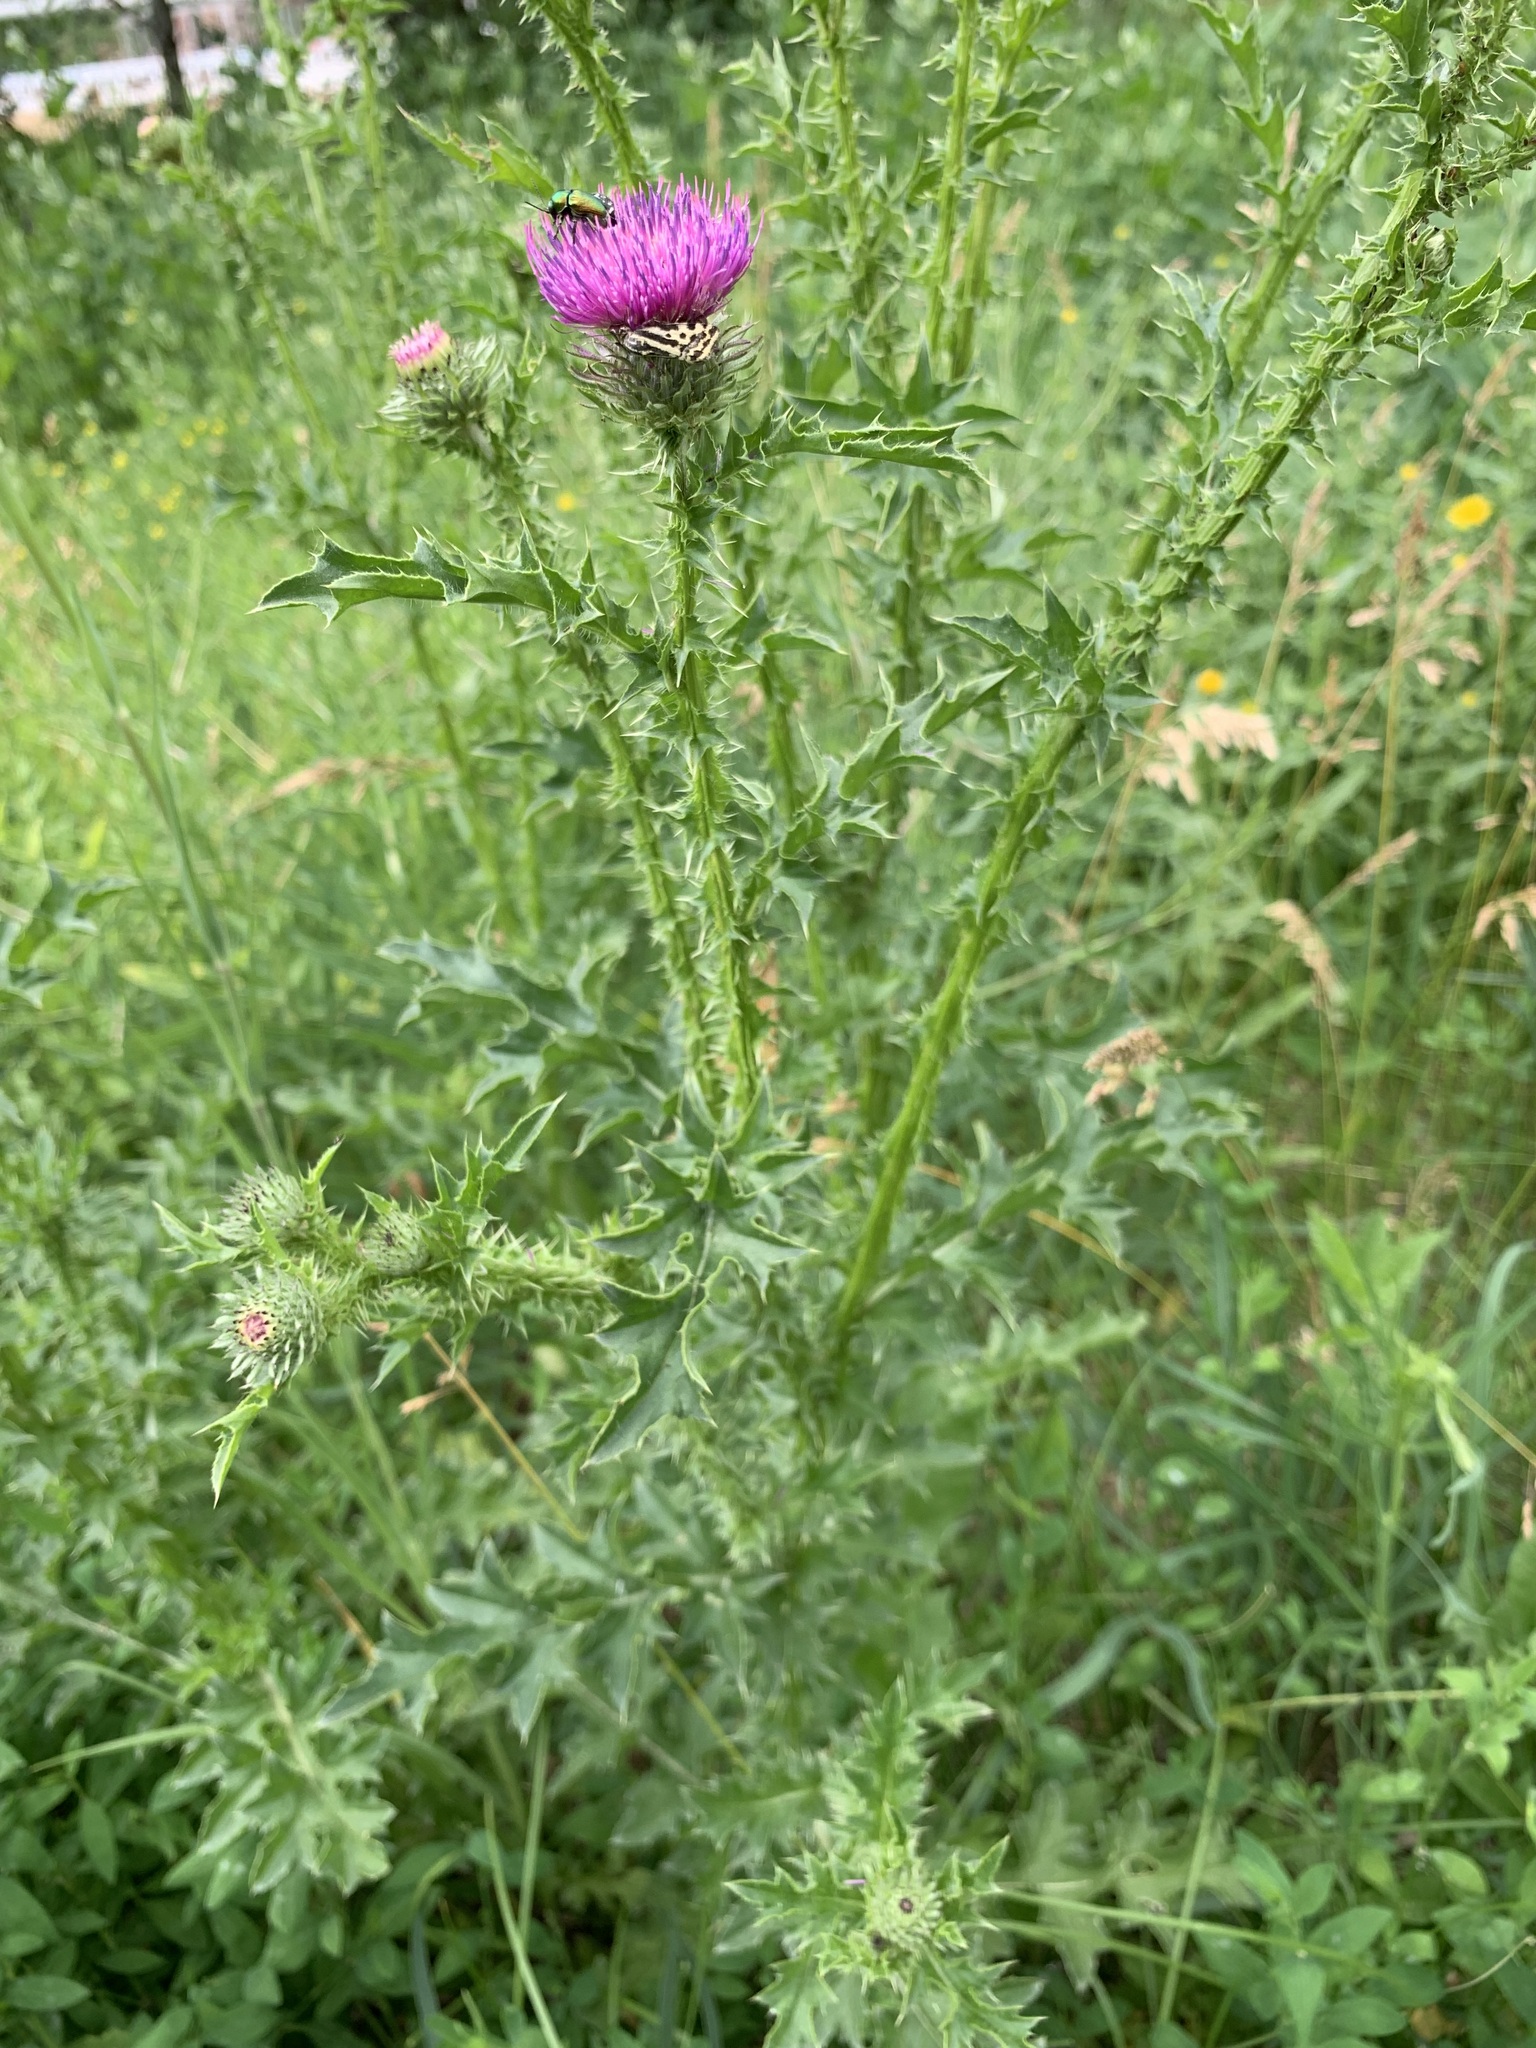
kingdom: Plantae
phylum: Tracheophyta
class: Magnoliopsida
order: Asterales
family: Asteraceae
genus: Carduus
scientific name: Carduus acanthoides
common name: Plumeless thistle
